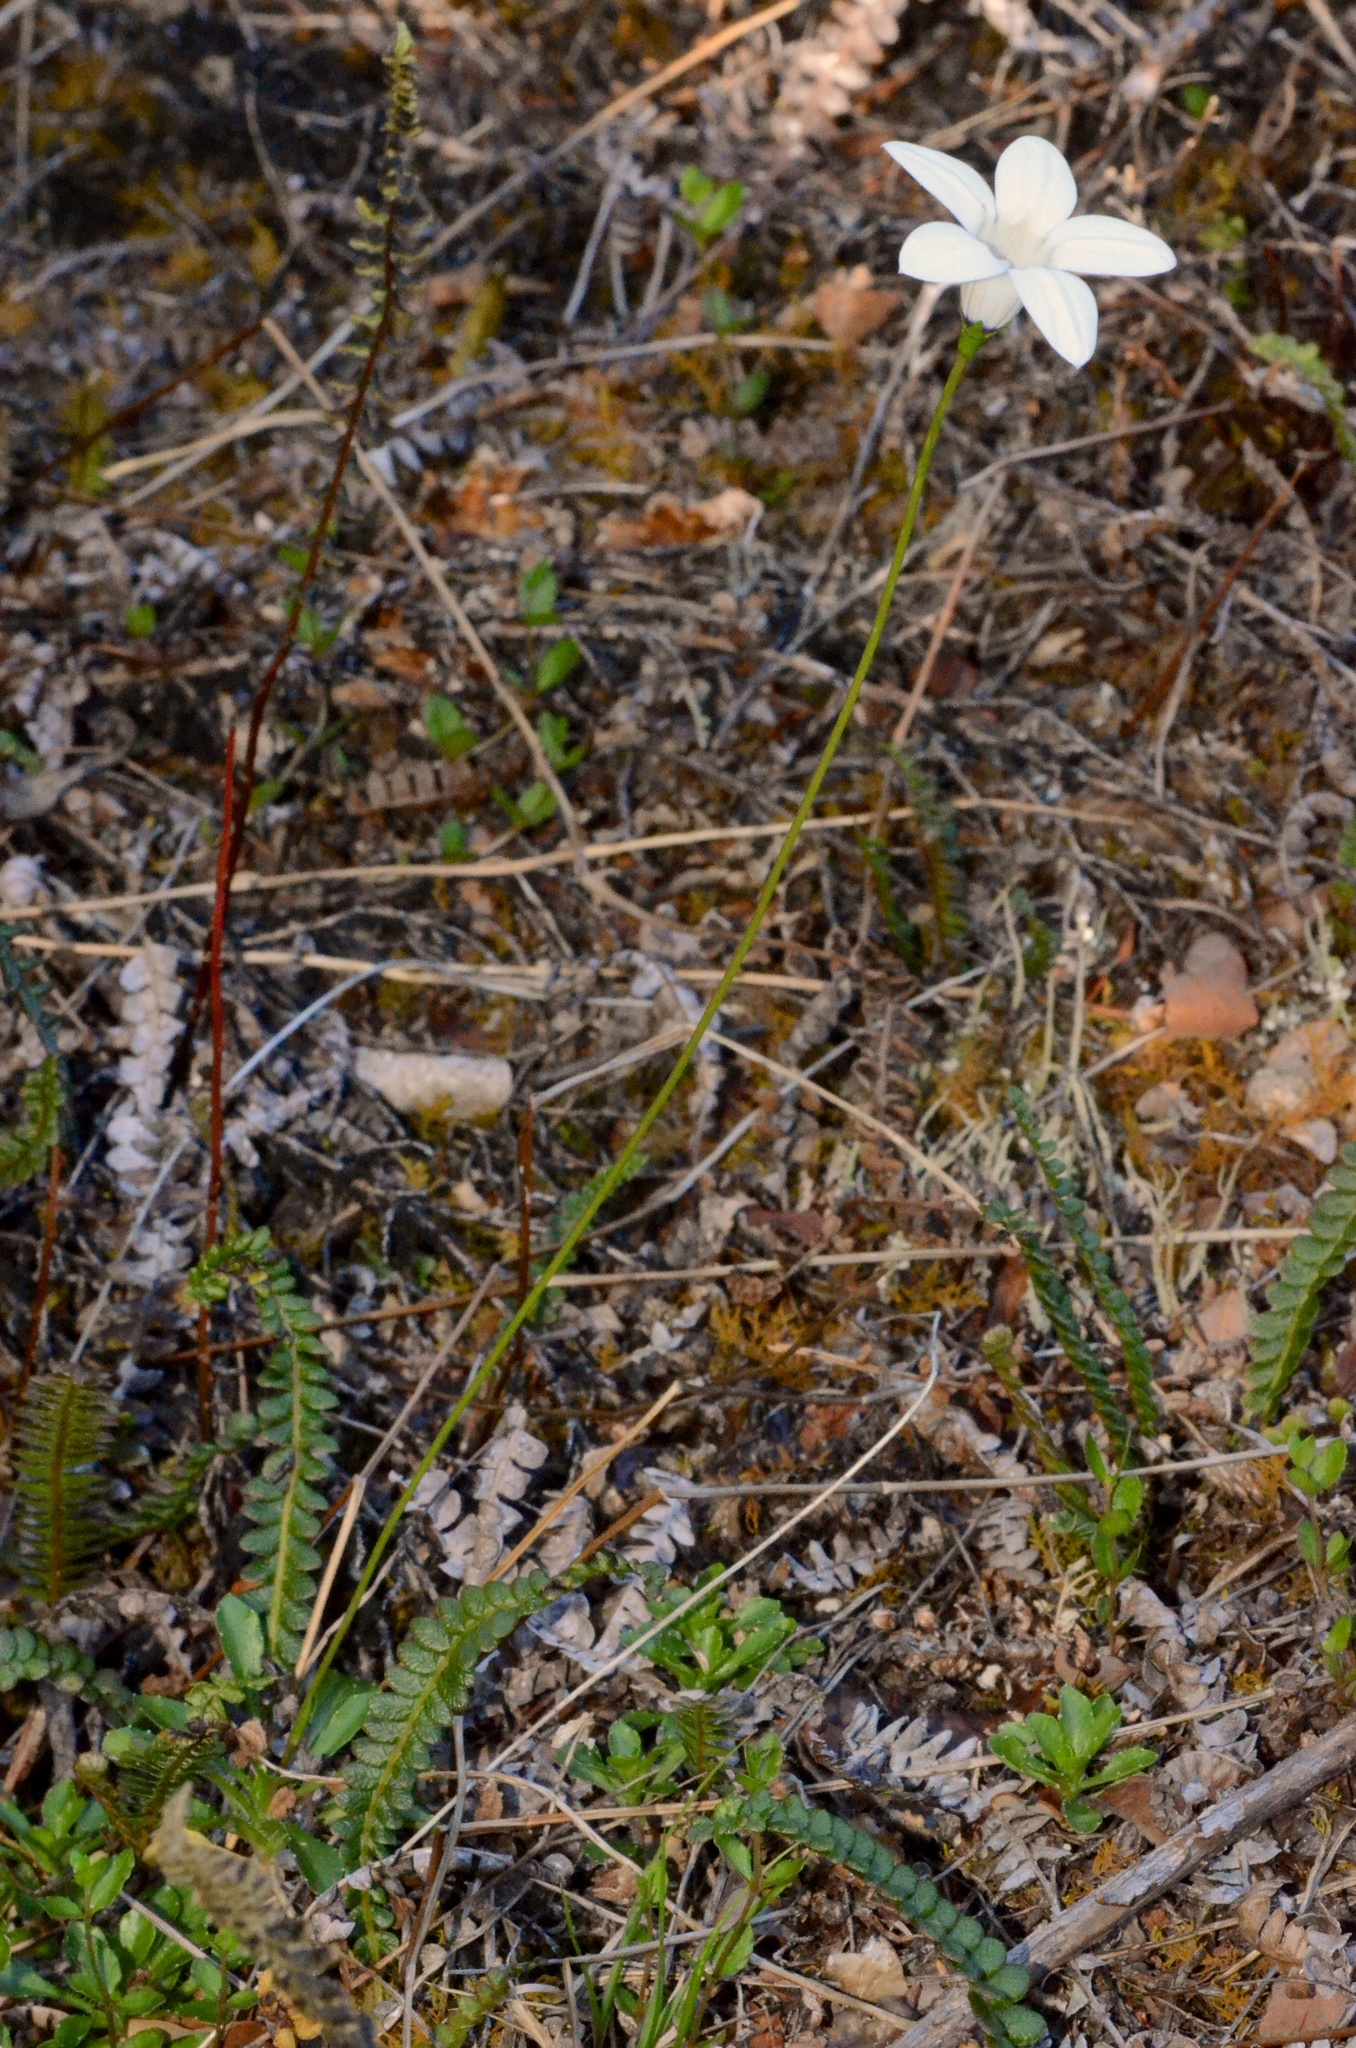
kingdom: Plantae
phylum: Tracheophyta
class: Magnoliopsida
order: Asterales
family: Campanulaceae
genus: Wahlenbergia
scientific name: Wahlenbergia albomarginata
